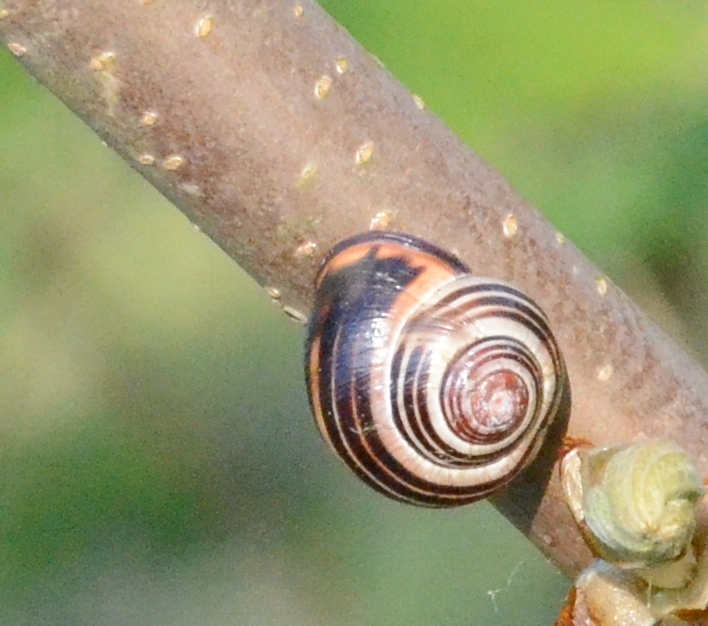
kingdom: Animalia
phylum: Mollusca
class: Gastropoda
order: Stylommatophora
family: Helicidae
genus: Cepaea
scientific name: Cepaea nemoralis
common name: Grovesnail
